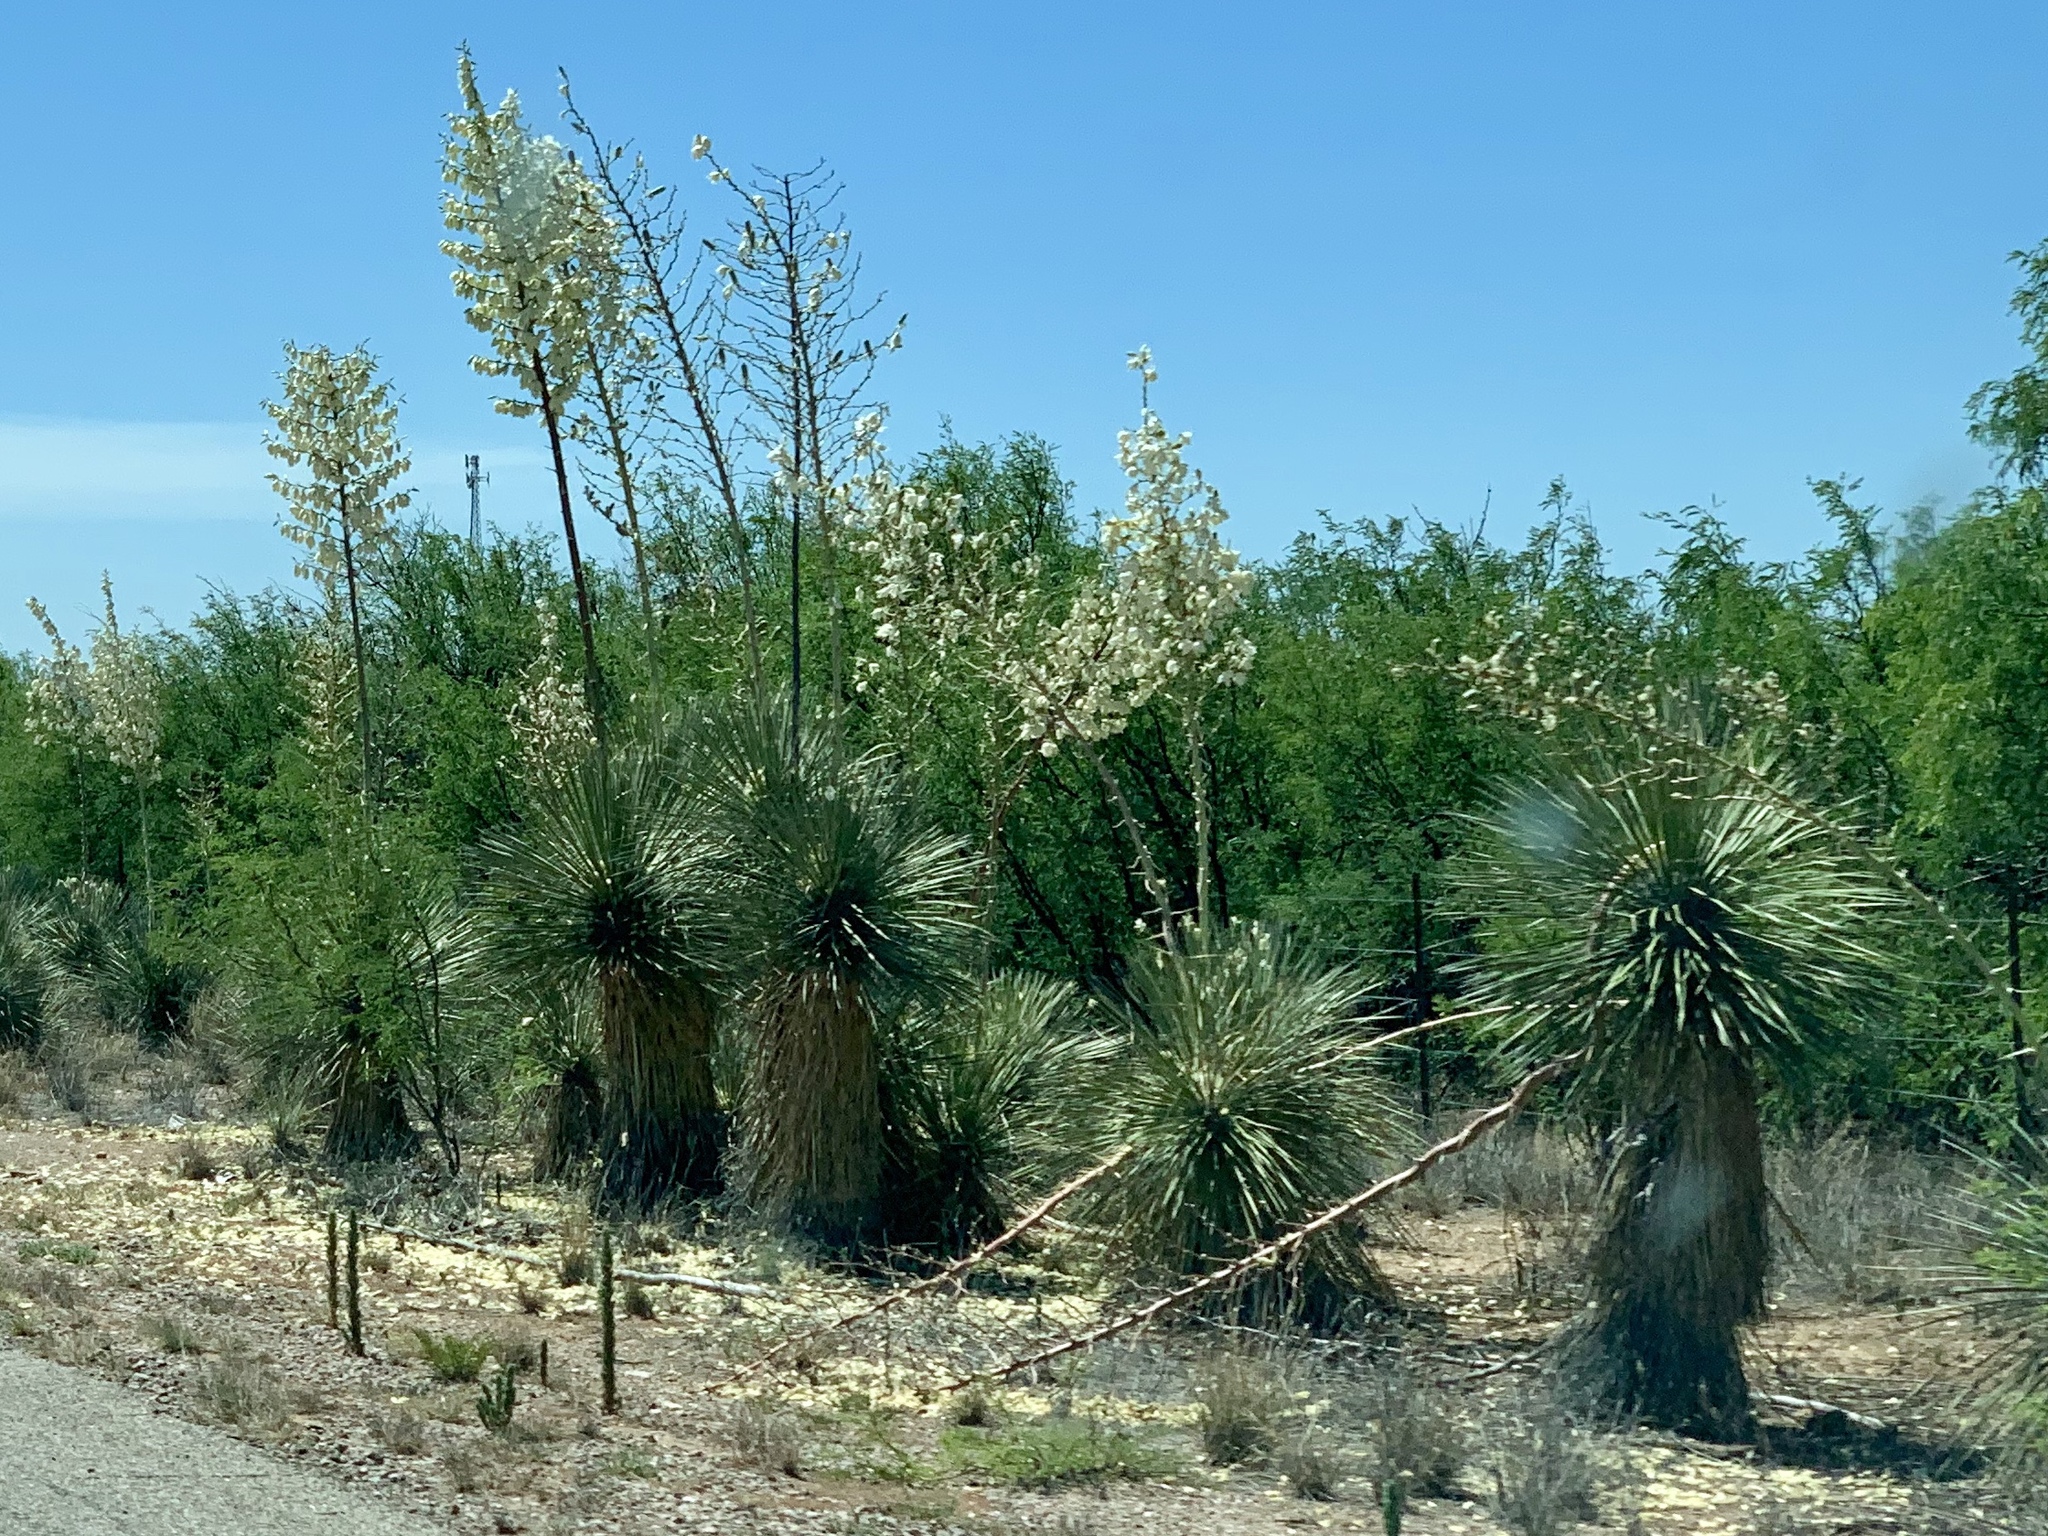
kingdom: Plantae
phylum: Tracheophyta
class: Liliopsida
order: Asparagales
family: Asparagaceae
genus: Yucca
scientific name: Yucca elata
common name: Palmella
